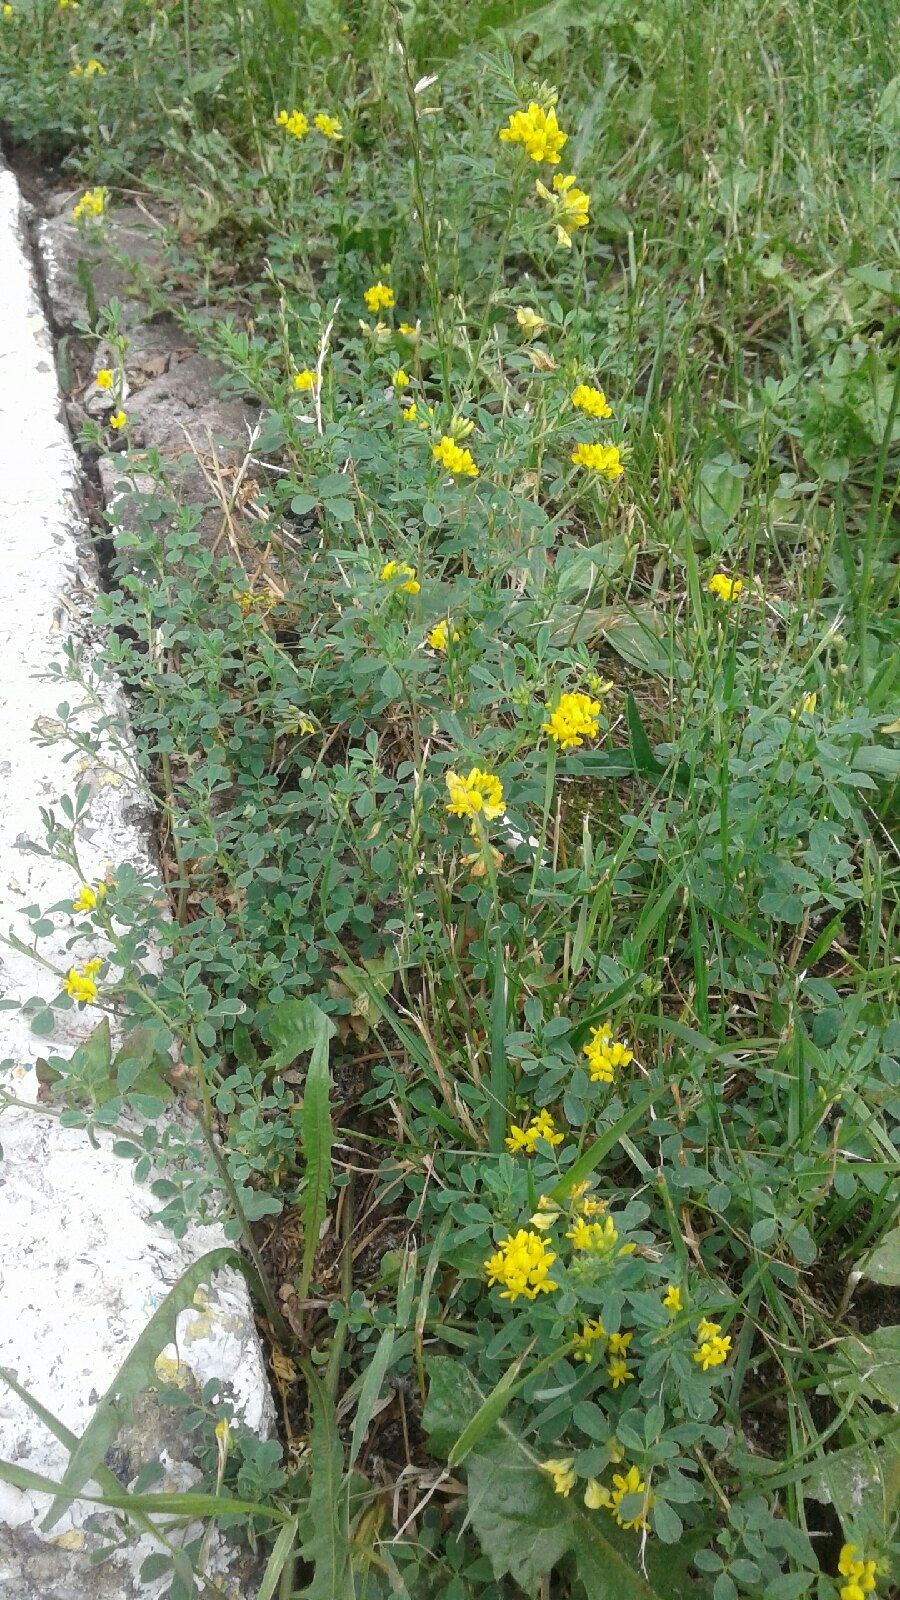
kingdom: Plantae
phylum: Tracheophyta
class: Magnoliopsida
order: Fabales
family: Fabaceae
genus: Melilotus
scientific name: Melilotus officinalis
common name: Sweetclover
